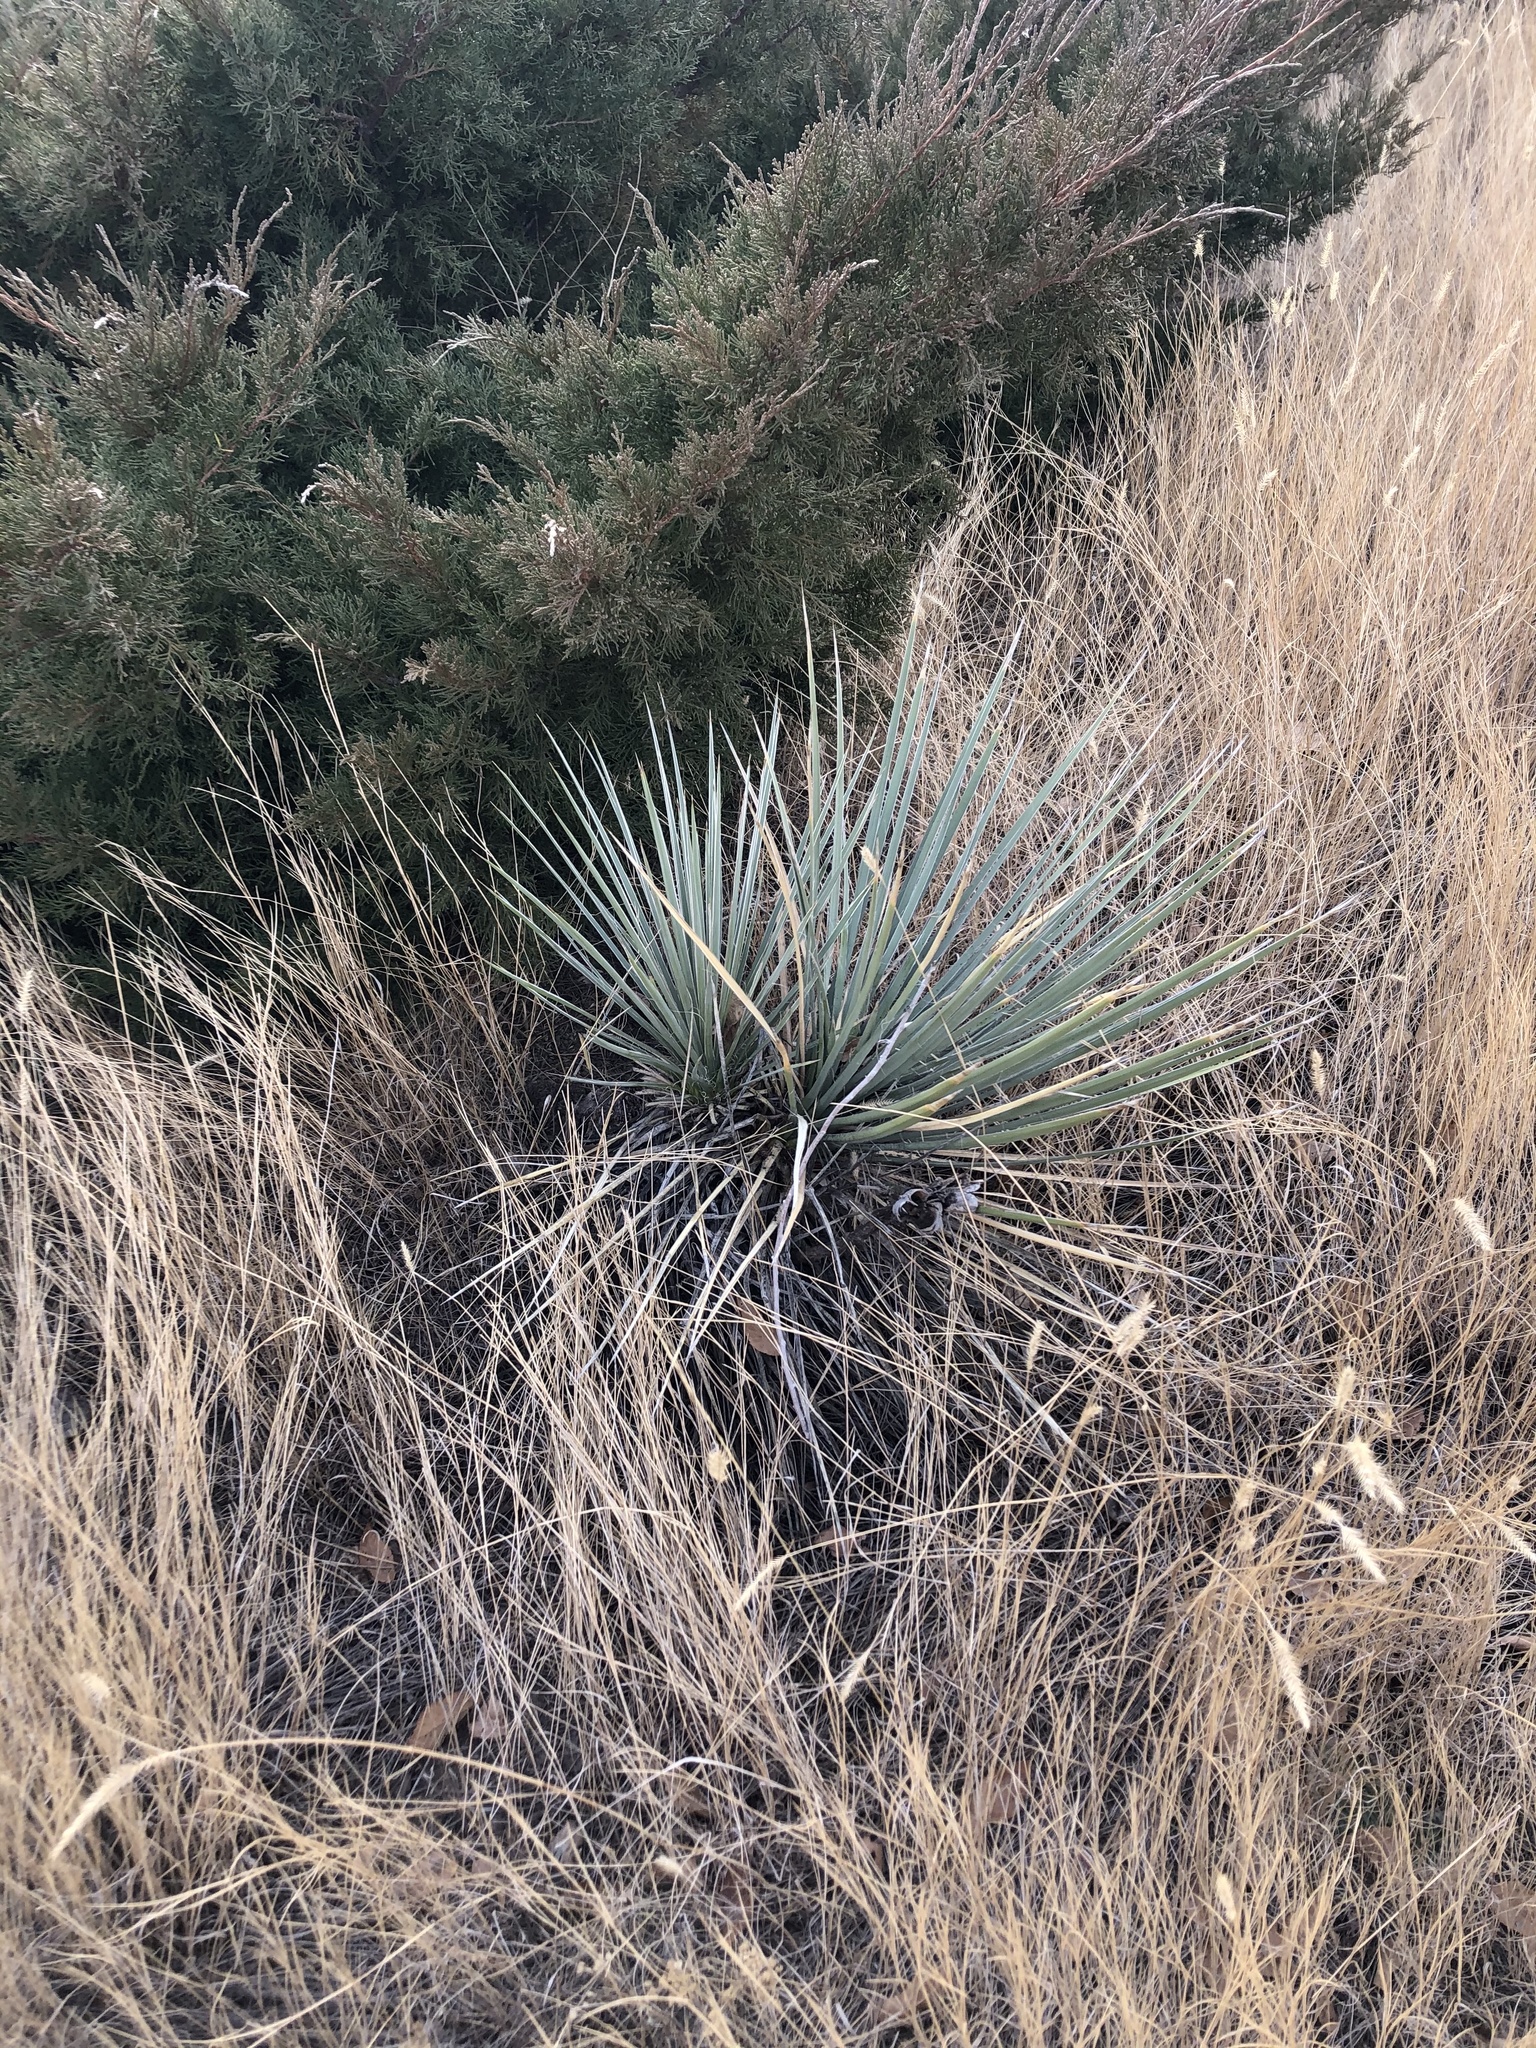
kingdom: Plantae
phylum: Tracheophyta
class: Liliopsida
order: Asparagales
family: Asparagaceae
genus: Yucca
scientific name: Yucca glauca
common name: Great plains yucca
